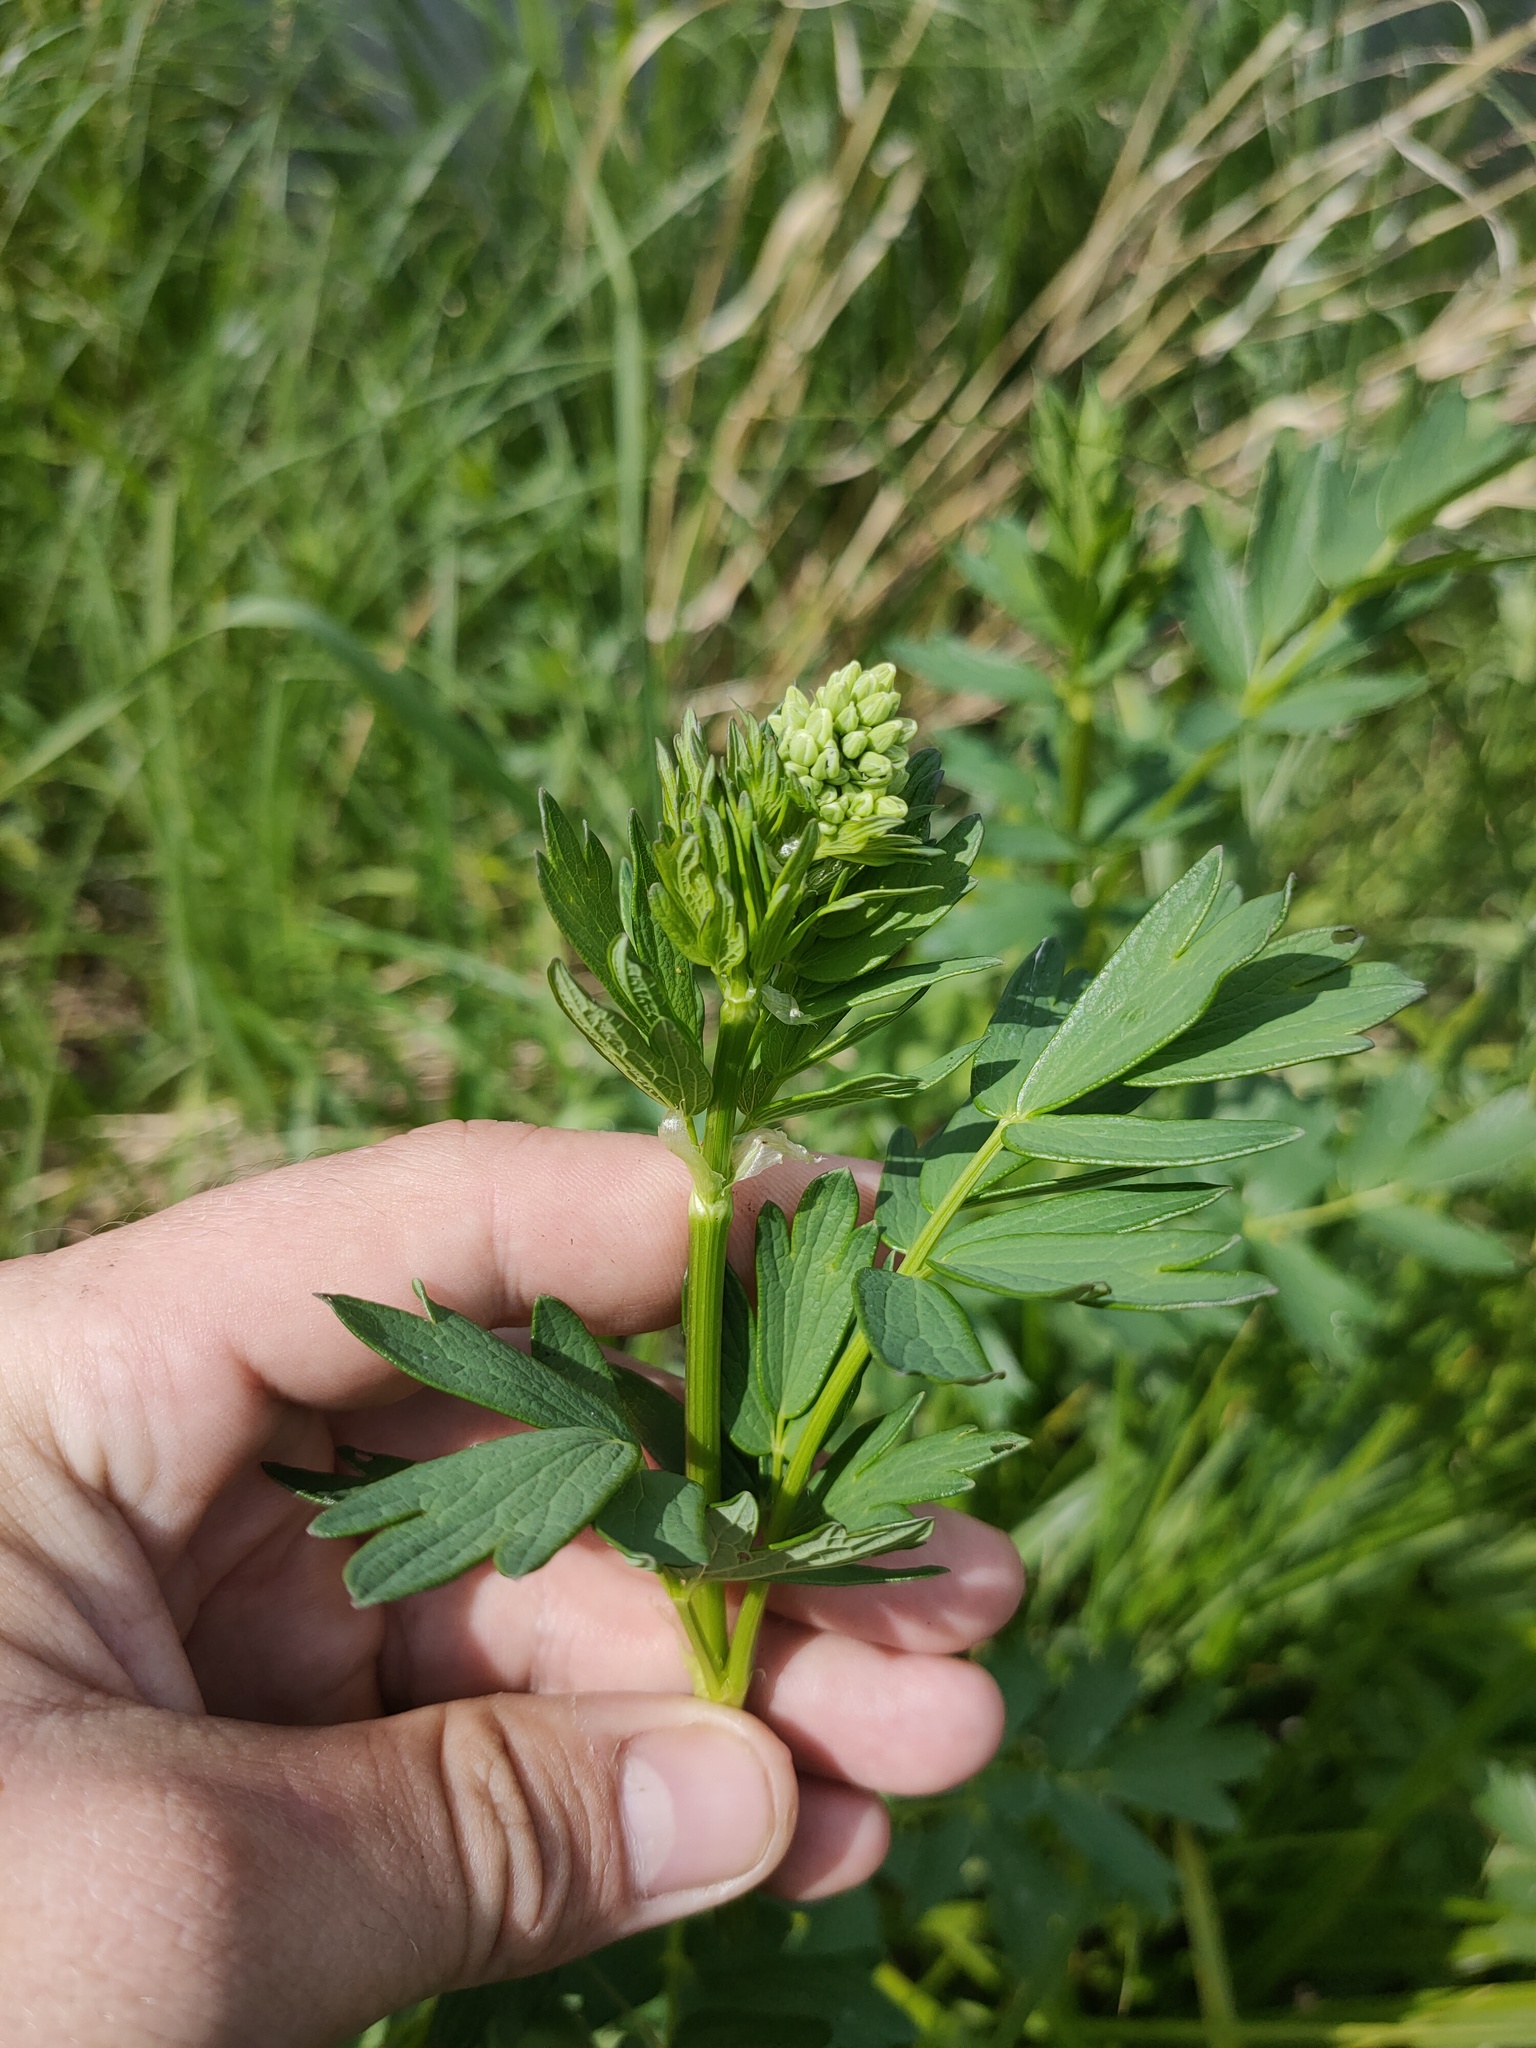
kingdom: Plantae
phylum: Tracheophyta
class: Magnoliopsida
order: Ranunculales
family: Ranunculaceae
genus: Thalictrum
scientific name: Thalictrum flavum
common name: Common meadow-rue
